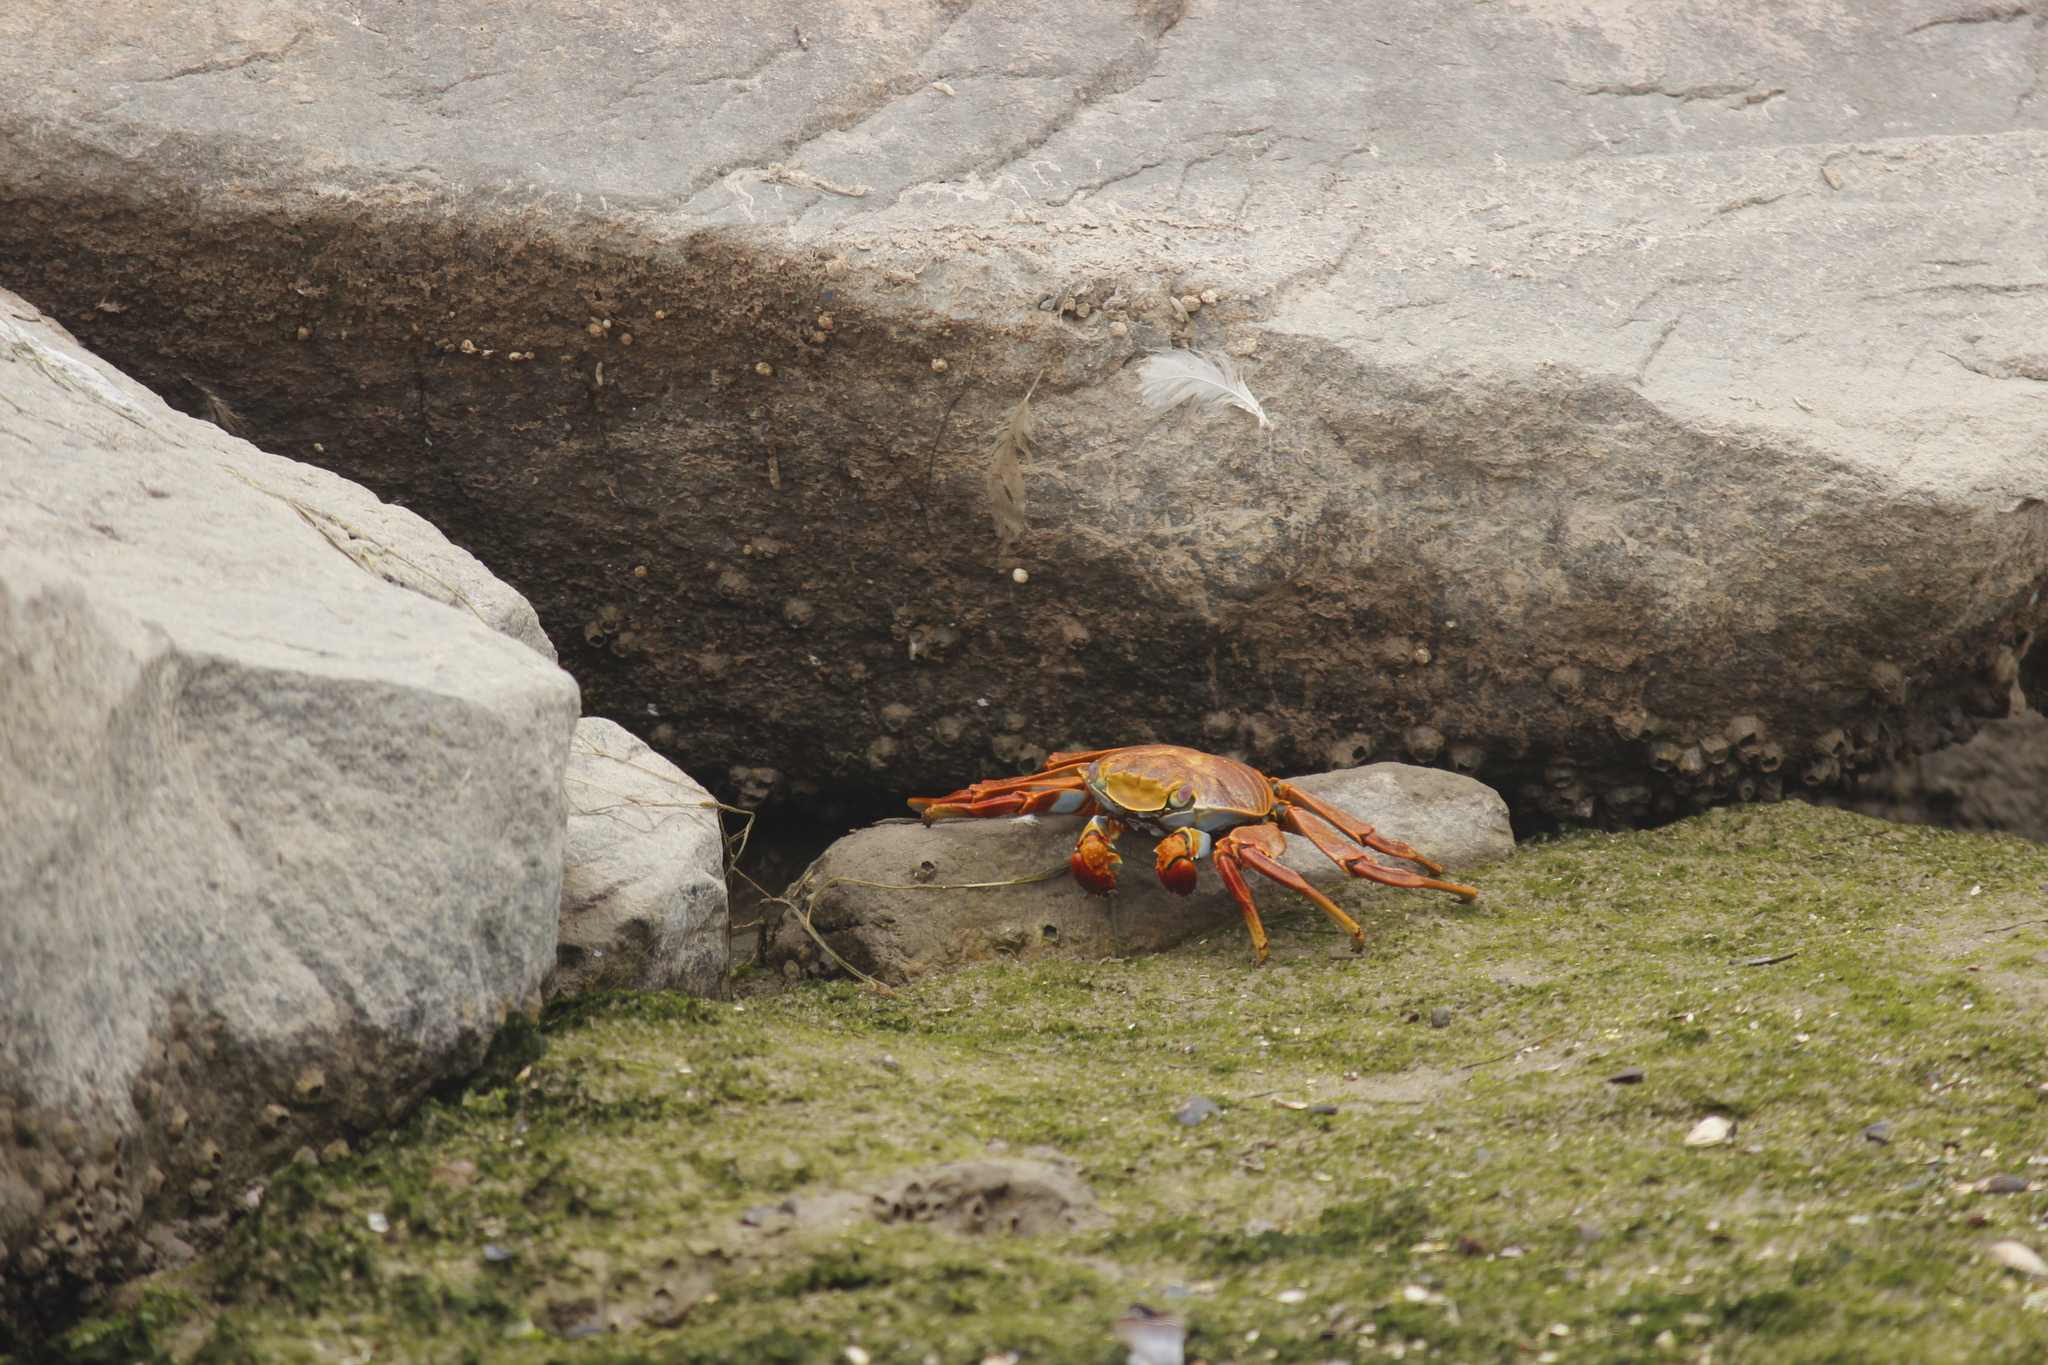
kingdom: Animalia
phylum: Arthropoda
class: Malacostraca
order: Decapoda
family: Grapsidae
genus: Grapsus
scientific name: Grapsus grapsus
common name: Sally lightfoot
